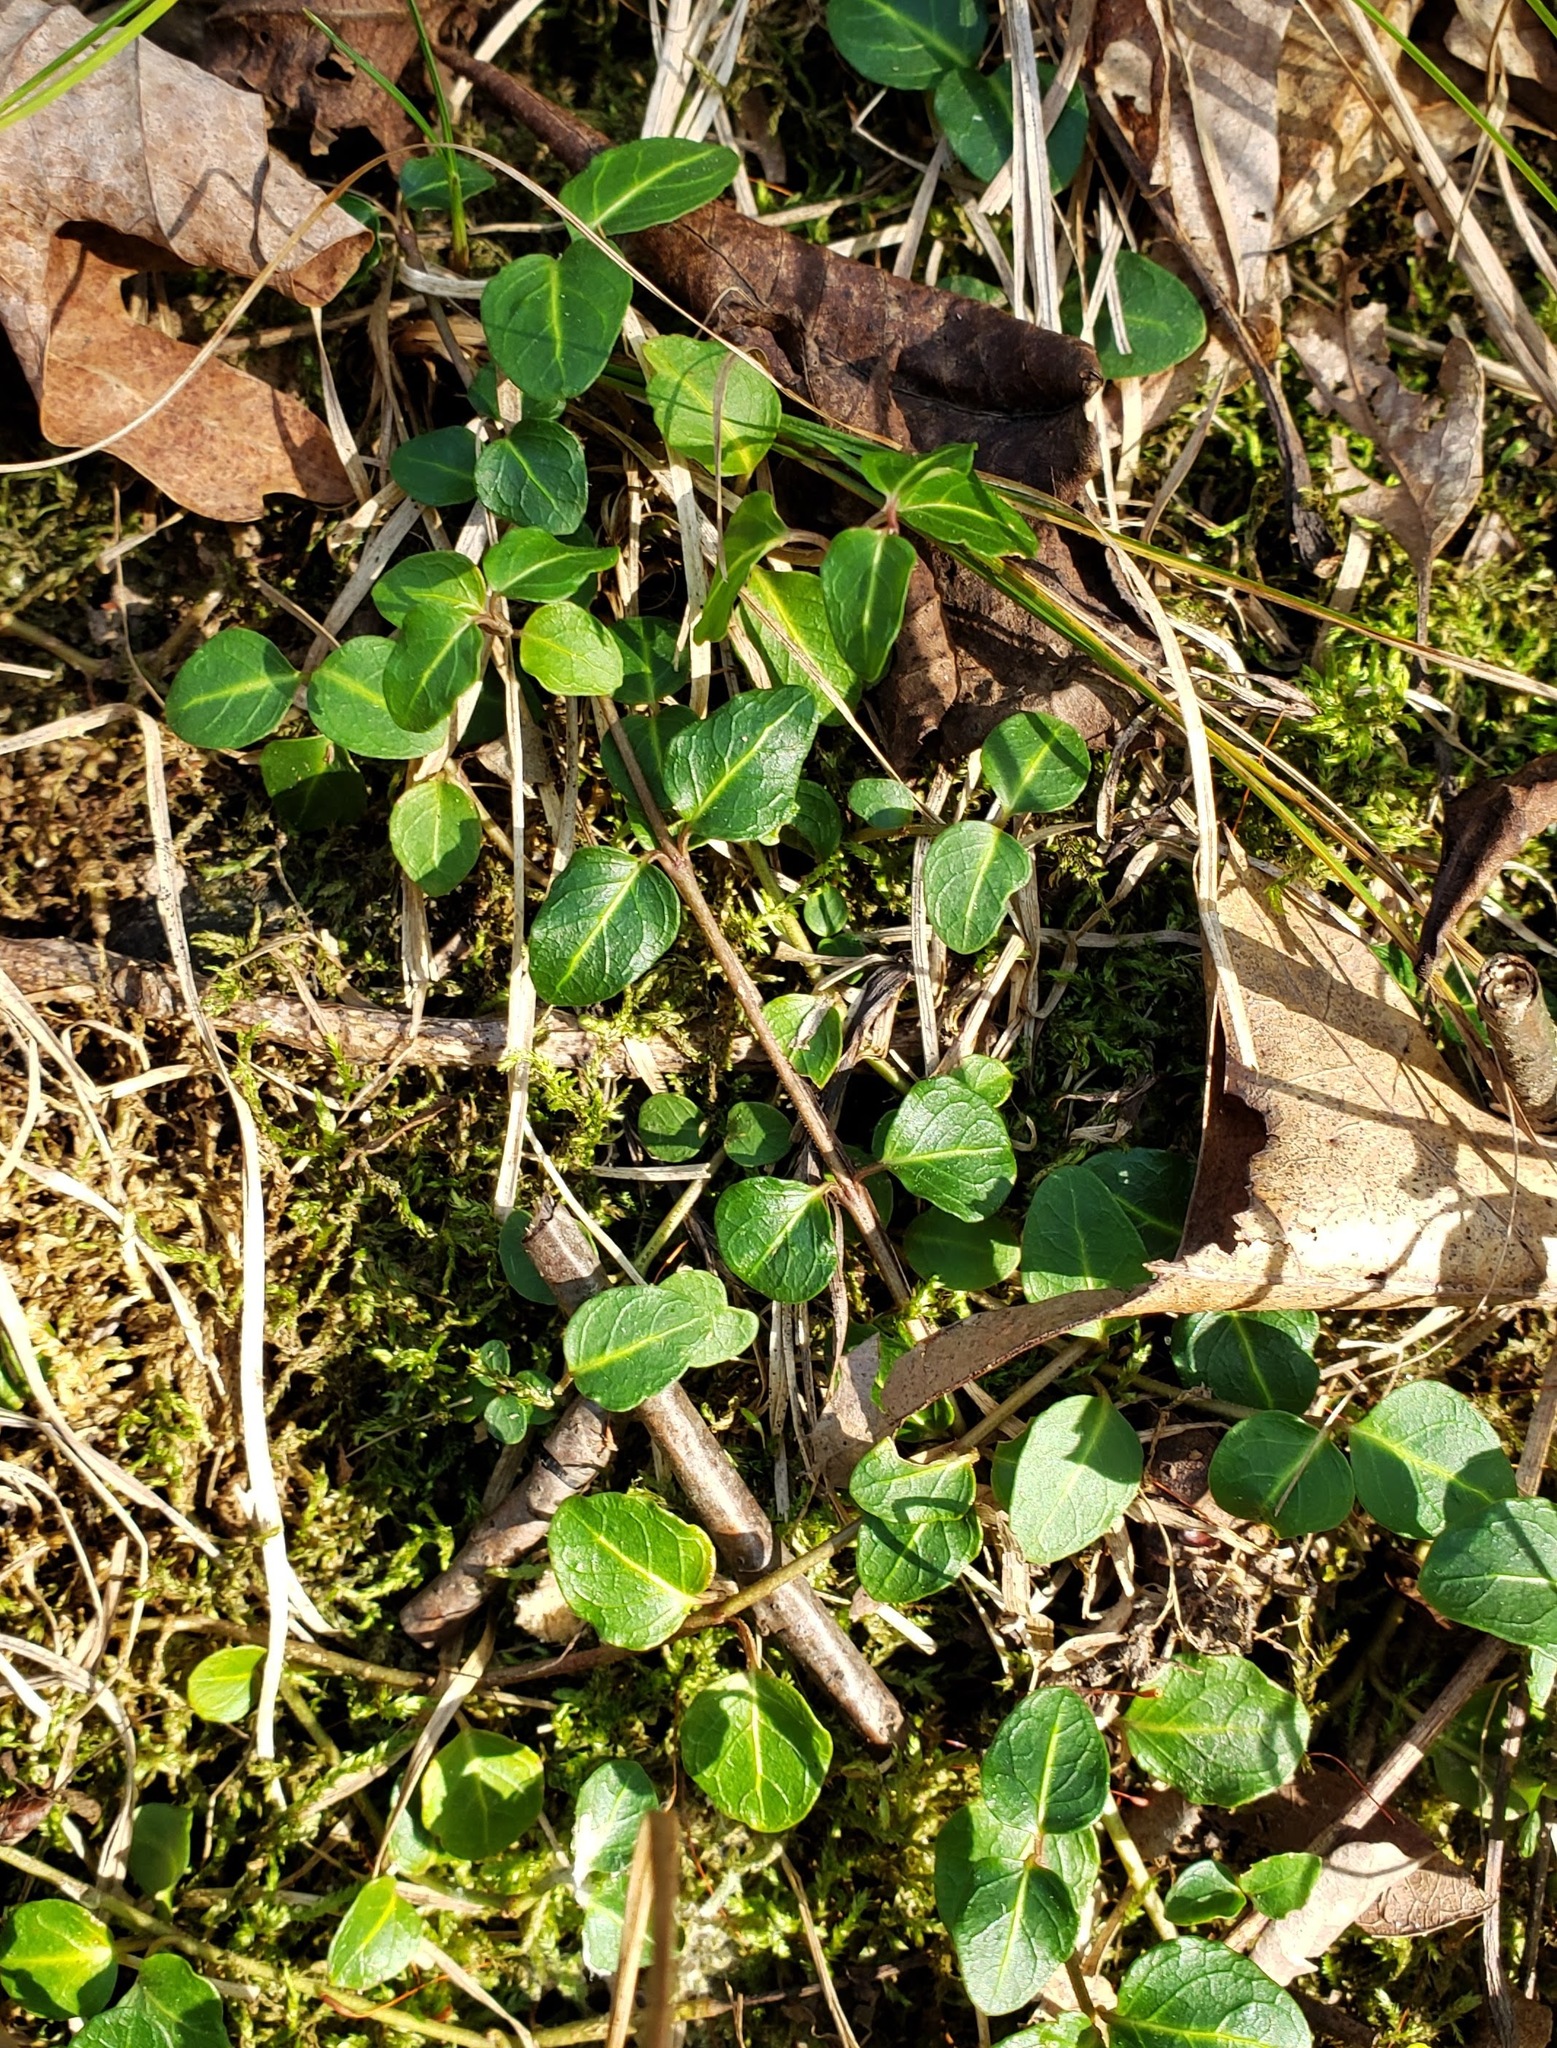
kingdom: Plantae
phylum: Tracheophyta
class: Magnoliopsida
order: Gentianales
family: Rubiaceae
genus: Mitchella
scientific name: Mitchella repens
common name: Partridge-berry
